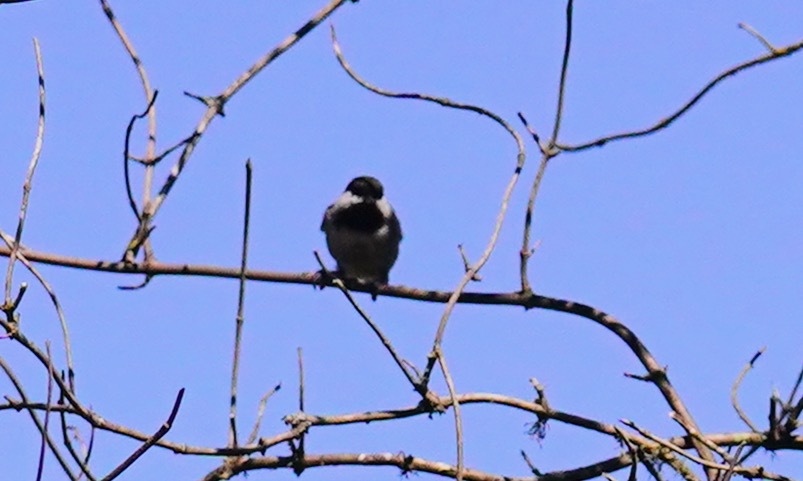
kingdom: Animalia
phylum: Chordata
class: Aves
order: Passeriformes
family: Paridae
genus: Poecile
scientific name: Poecile rufescens
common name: Chestnut-backed chickadee
